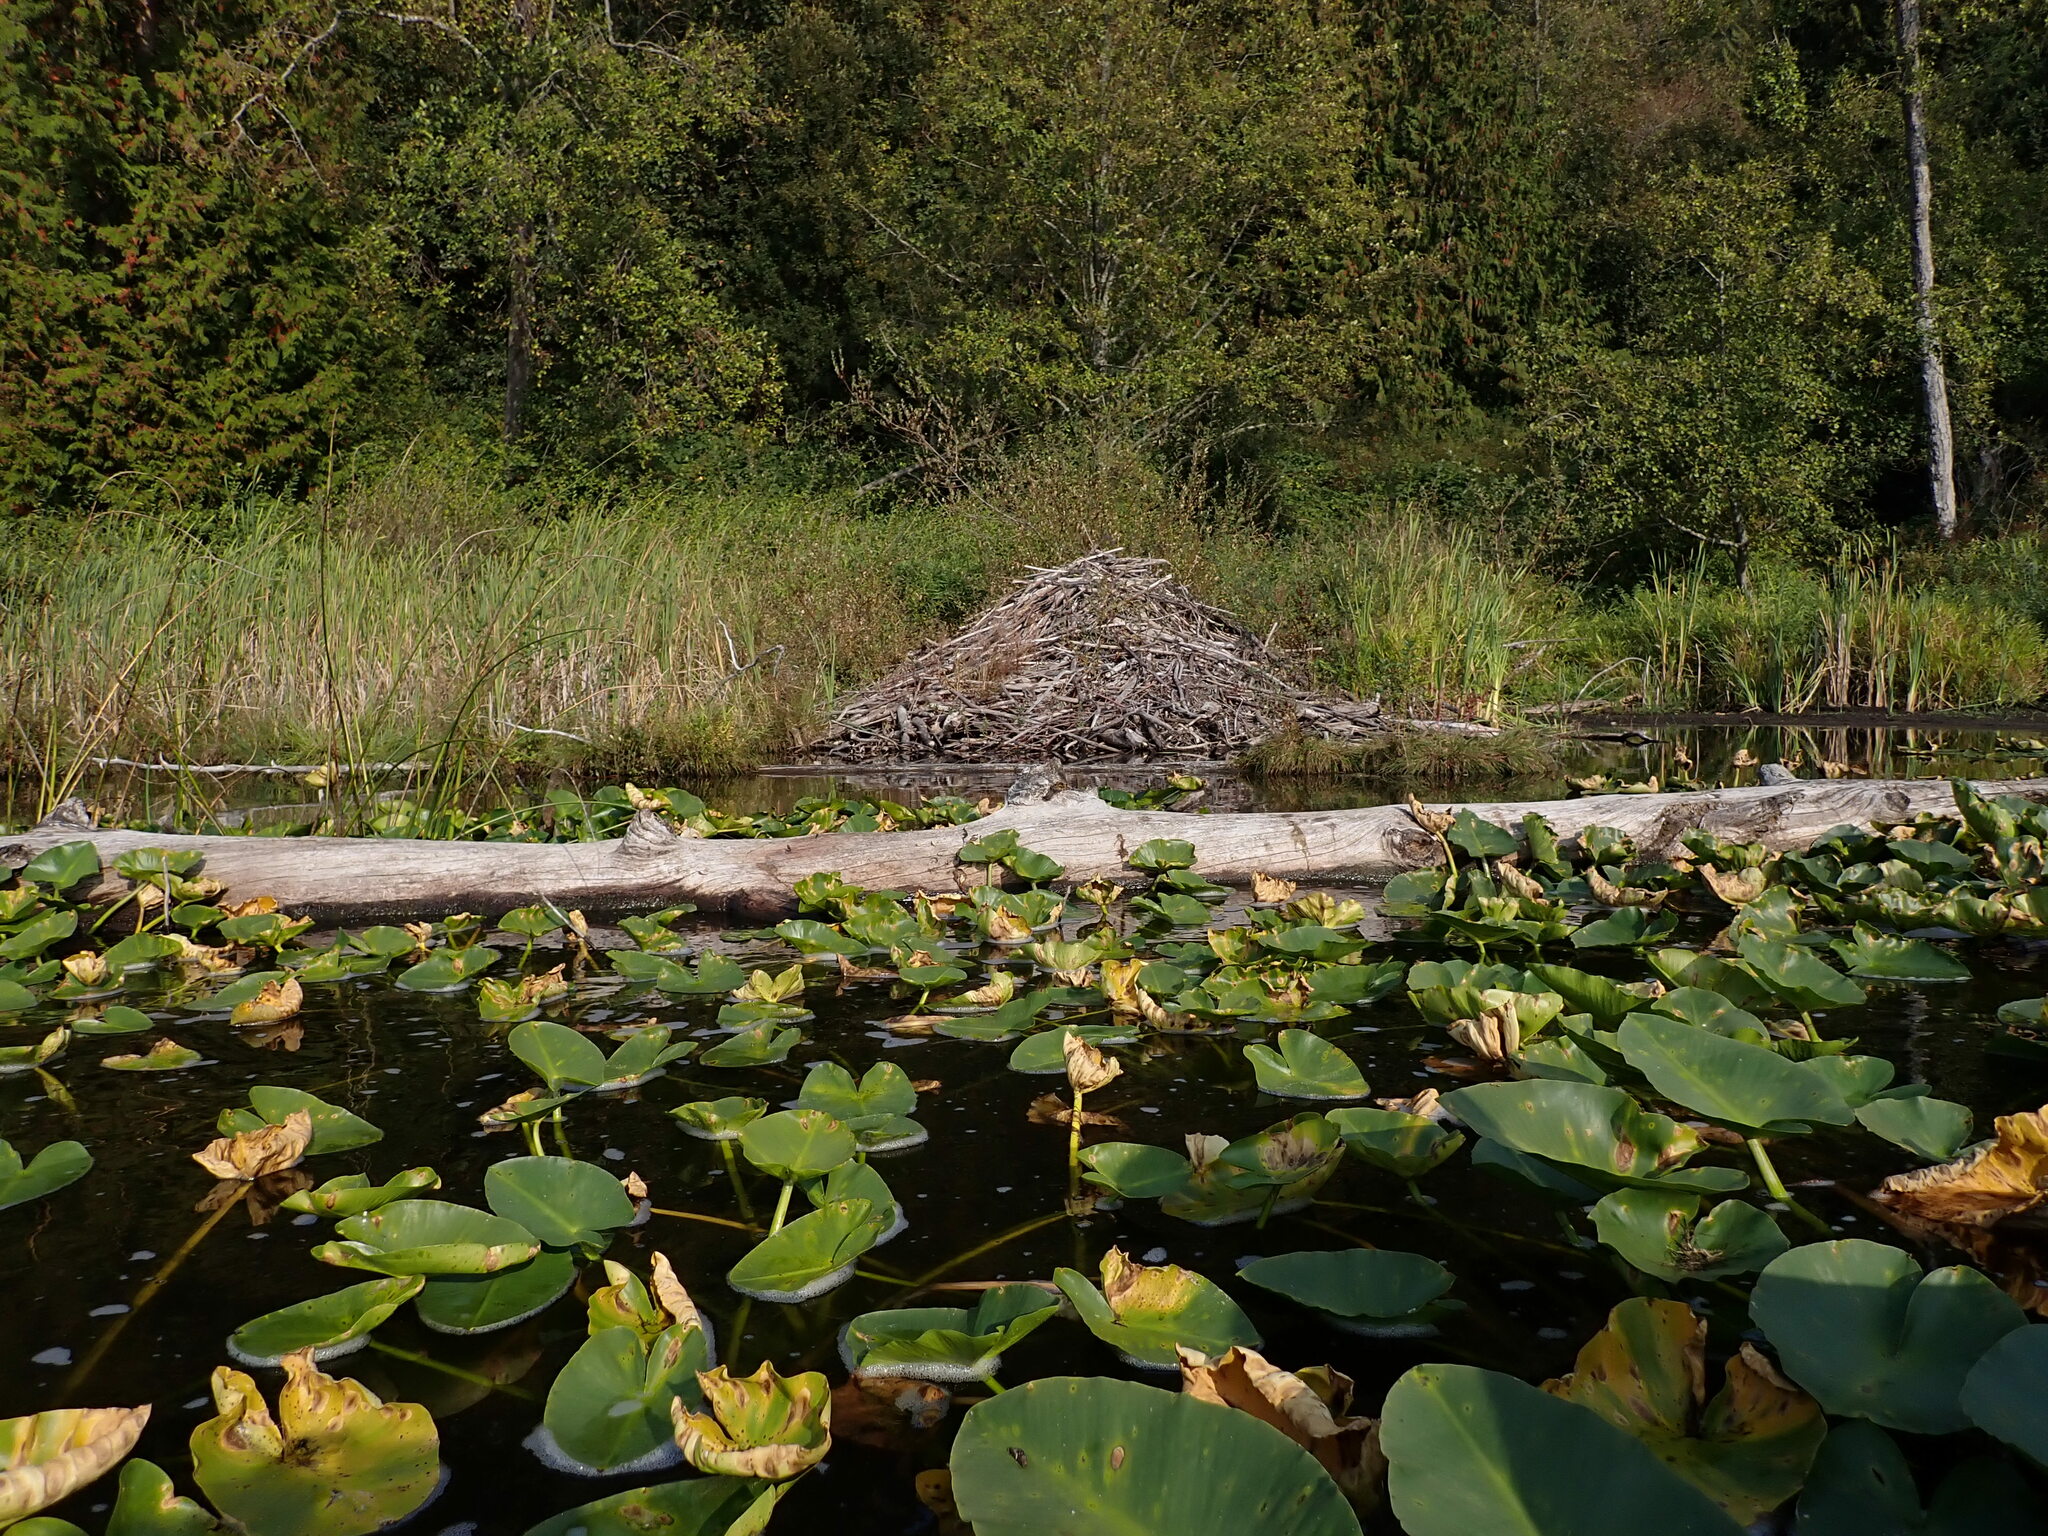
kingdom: Animalia
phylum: Chordata
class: Mammalia
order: Rodentia
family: Castoridae
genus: Castor
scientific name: Castor canadensis
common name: American beaver
